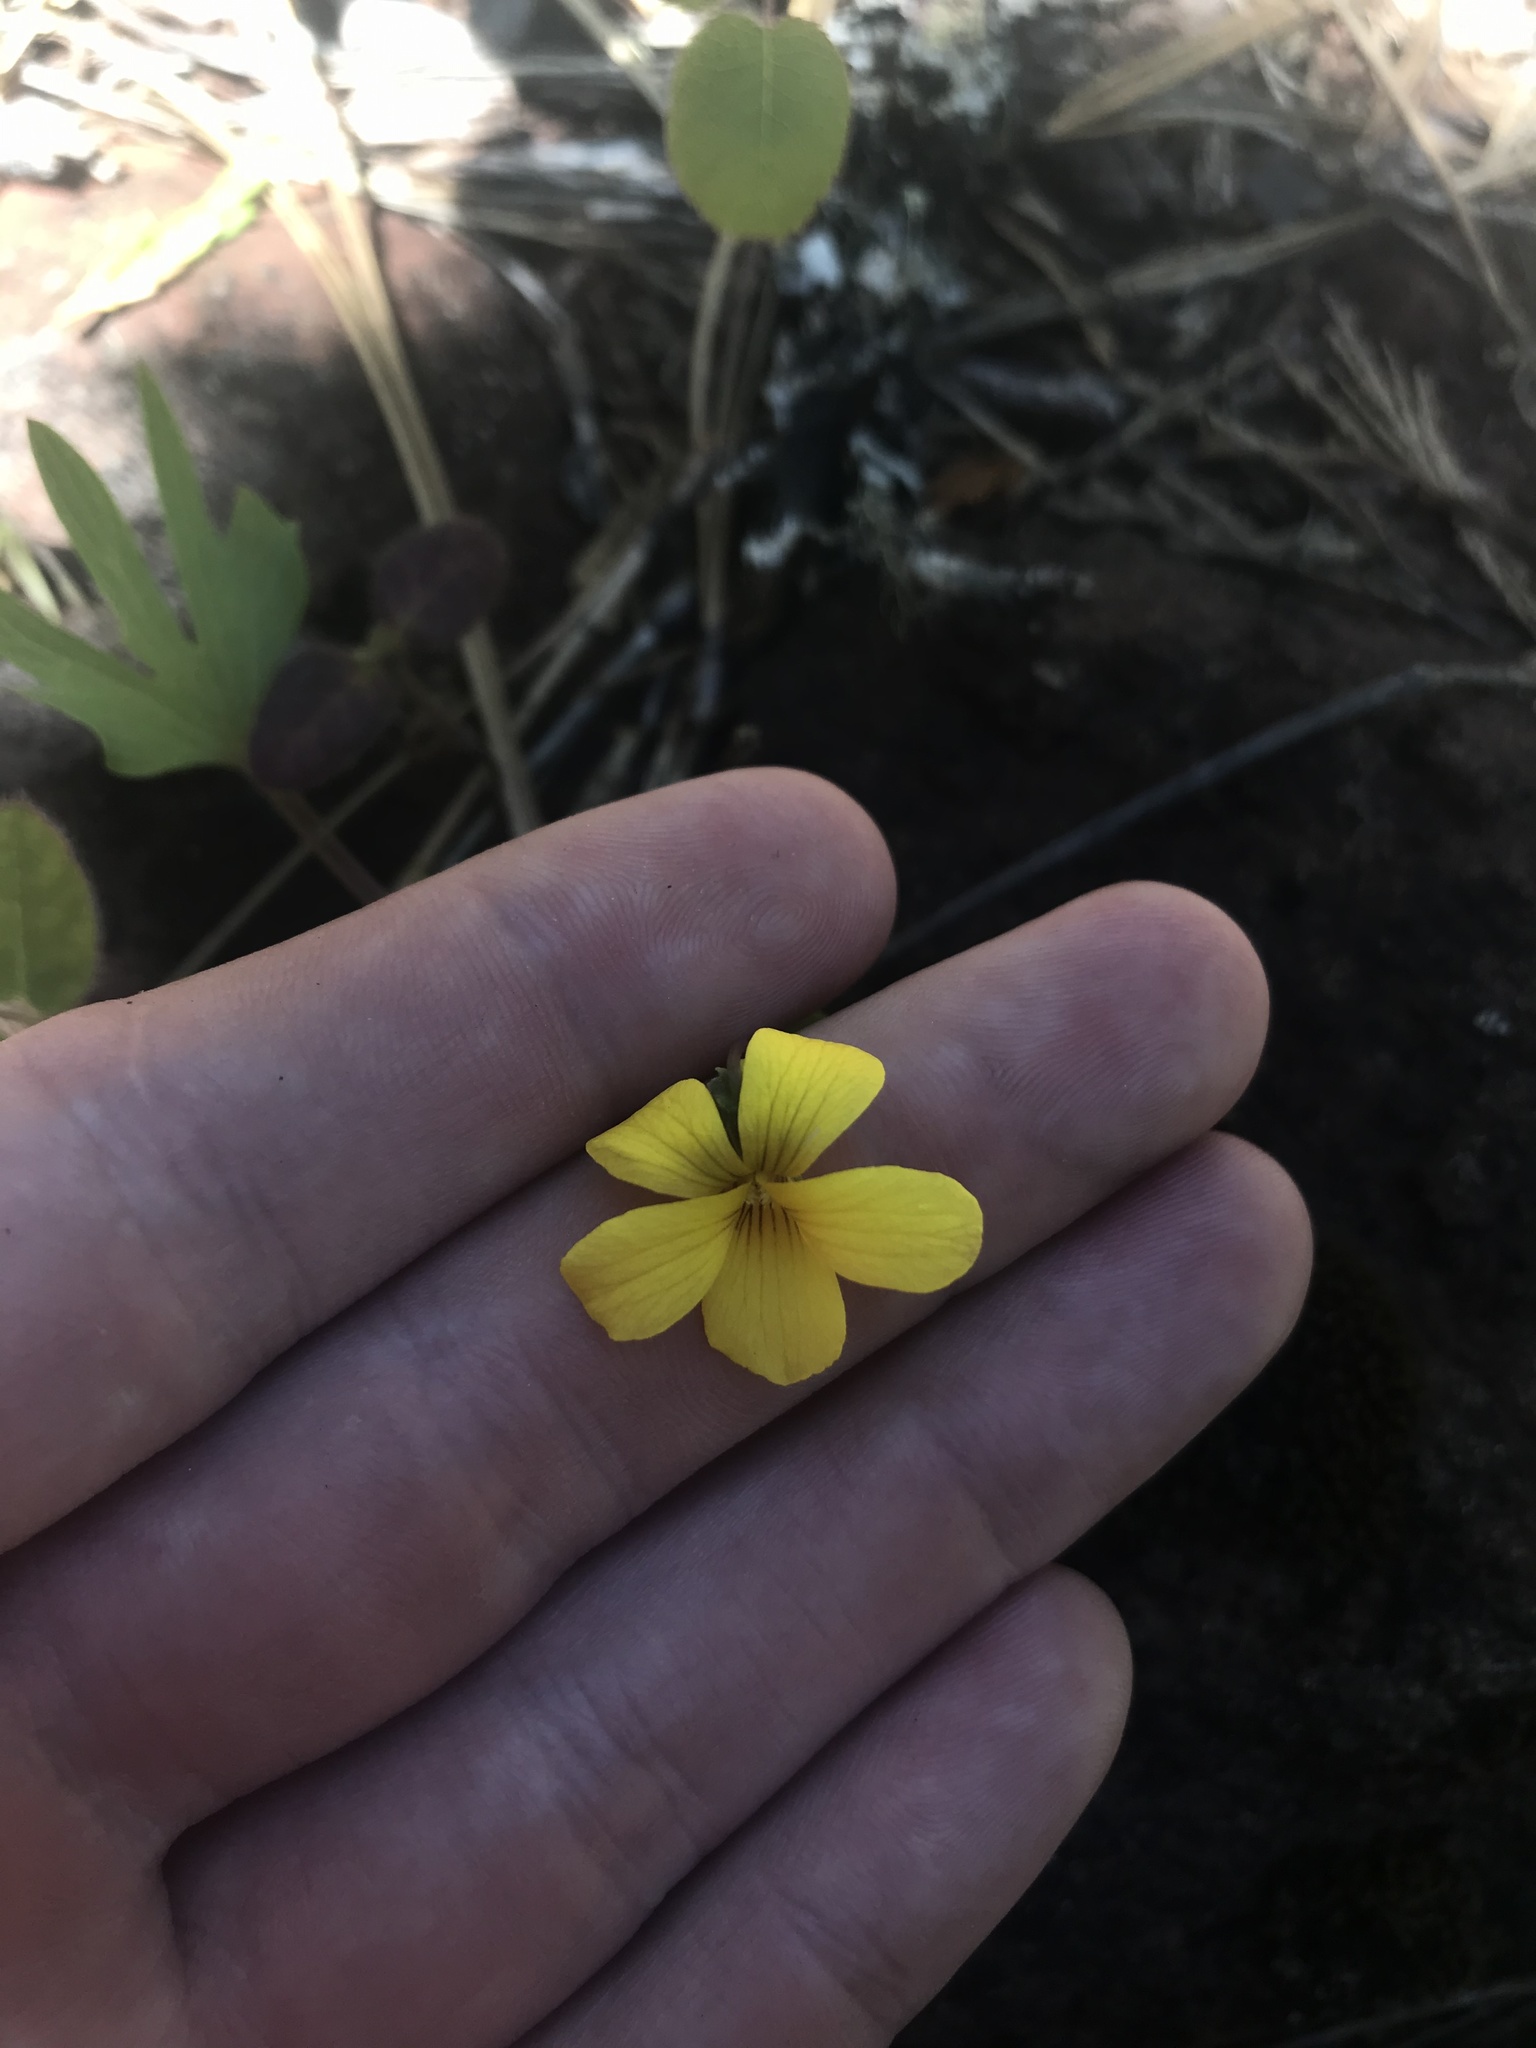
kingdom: Plantae
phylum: Tracheophyta
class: Magnoliopsida
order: Malpighiales
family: Violaceae
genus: Viola
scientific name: Viola lobata
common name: Pine violet
